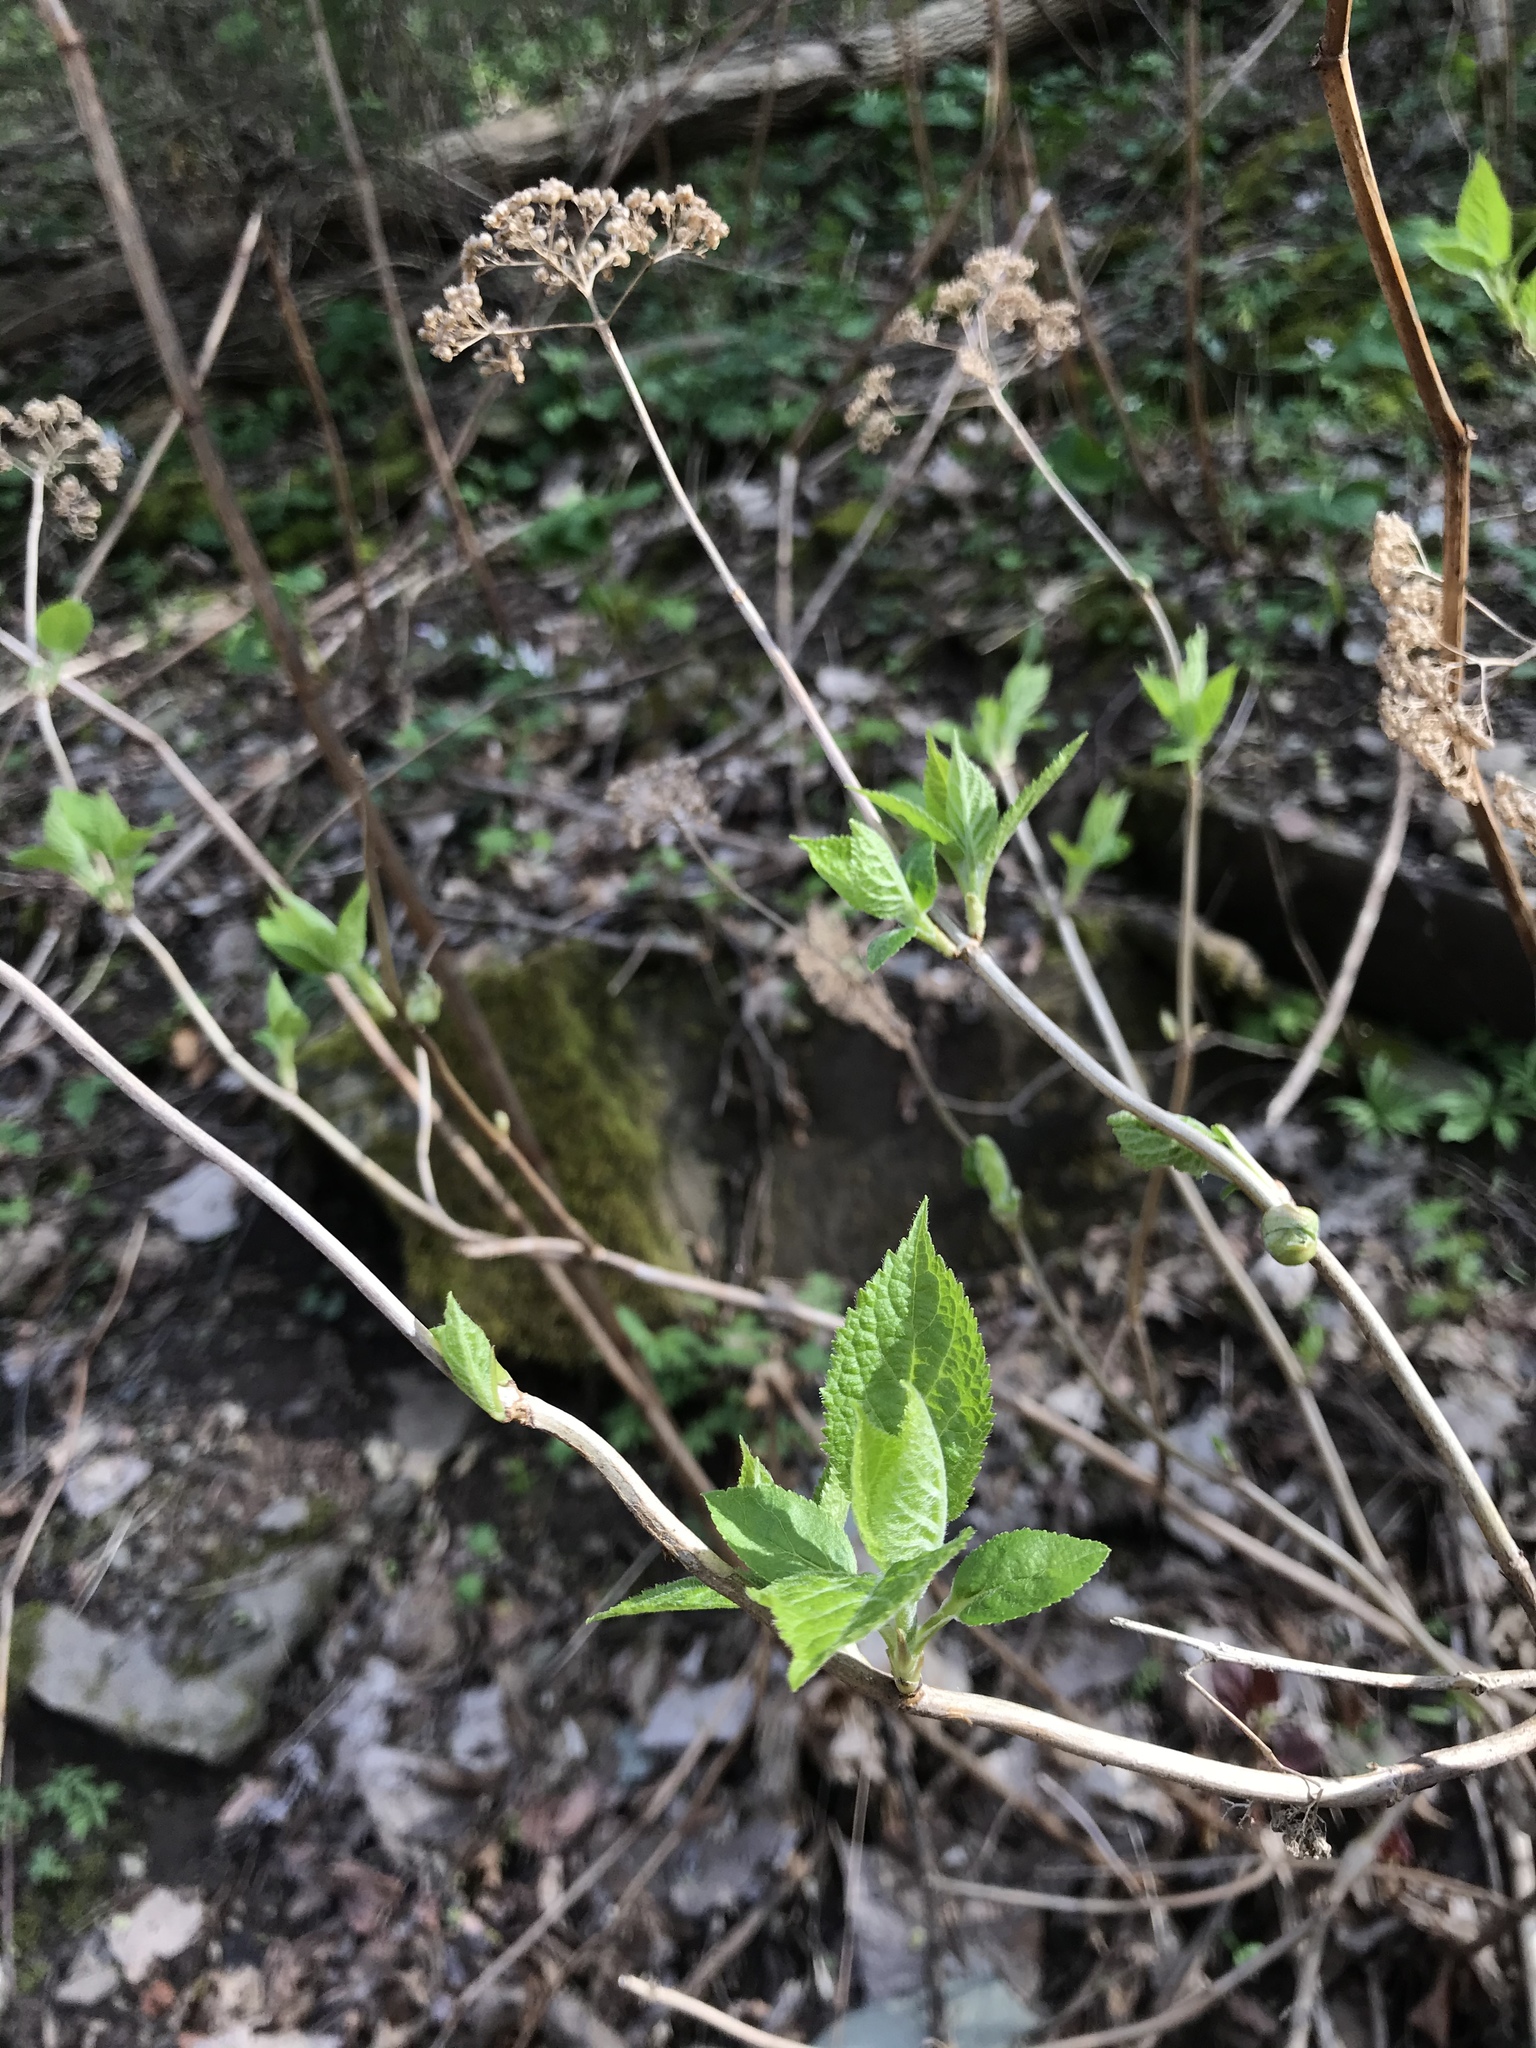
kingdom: Plantae
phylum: Tracheophyta
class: Magnoliopsida
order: Cornales
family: Hydrangeaceae
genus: Hydrangea
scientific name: Hydrangea arborescens
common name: Sevenbark
